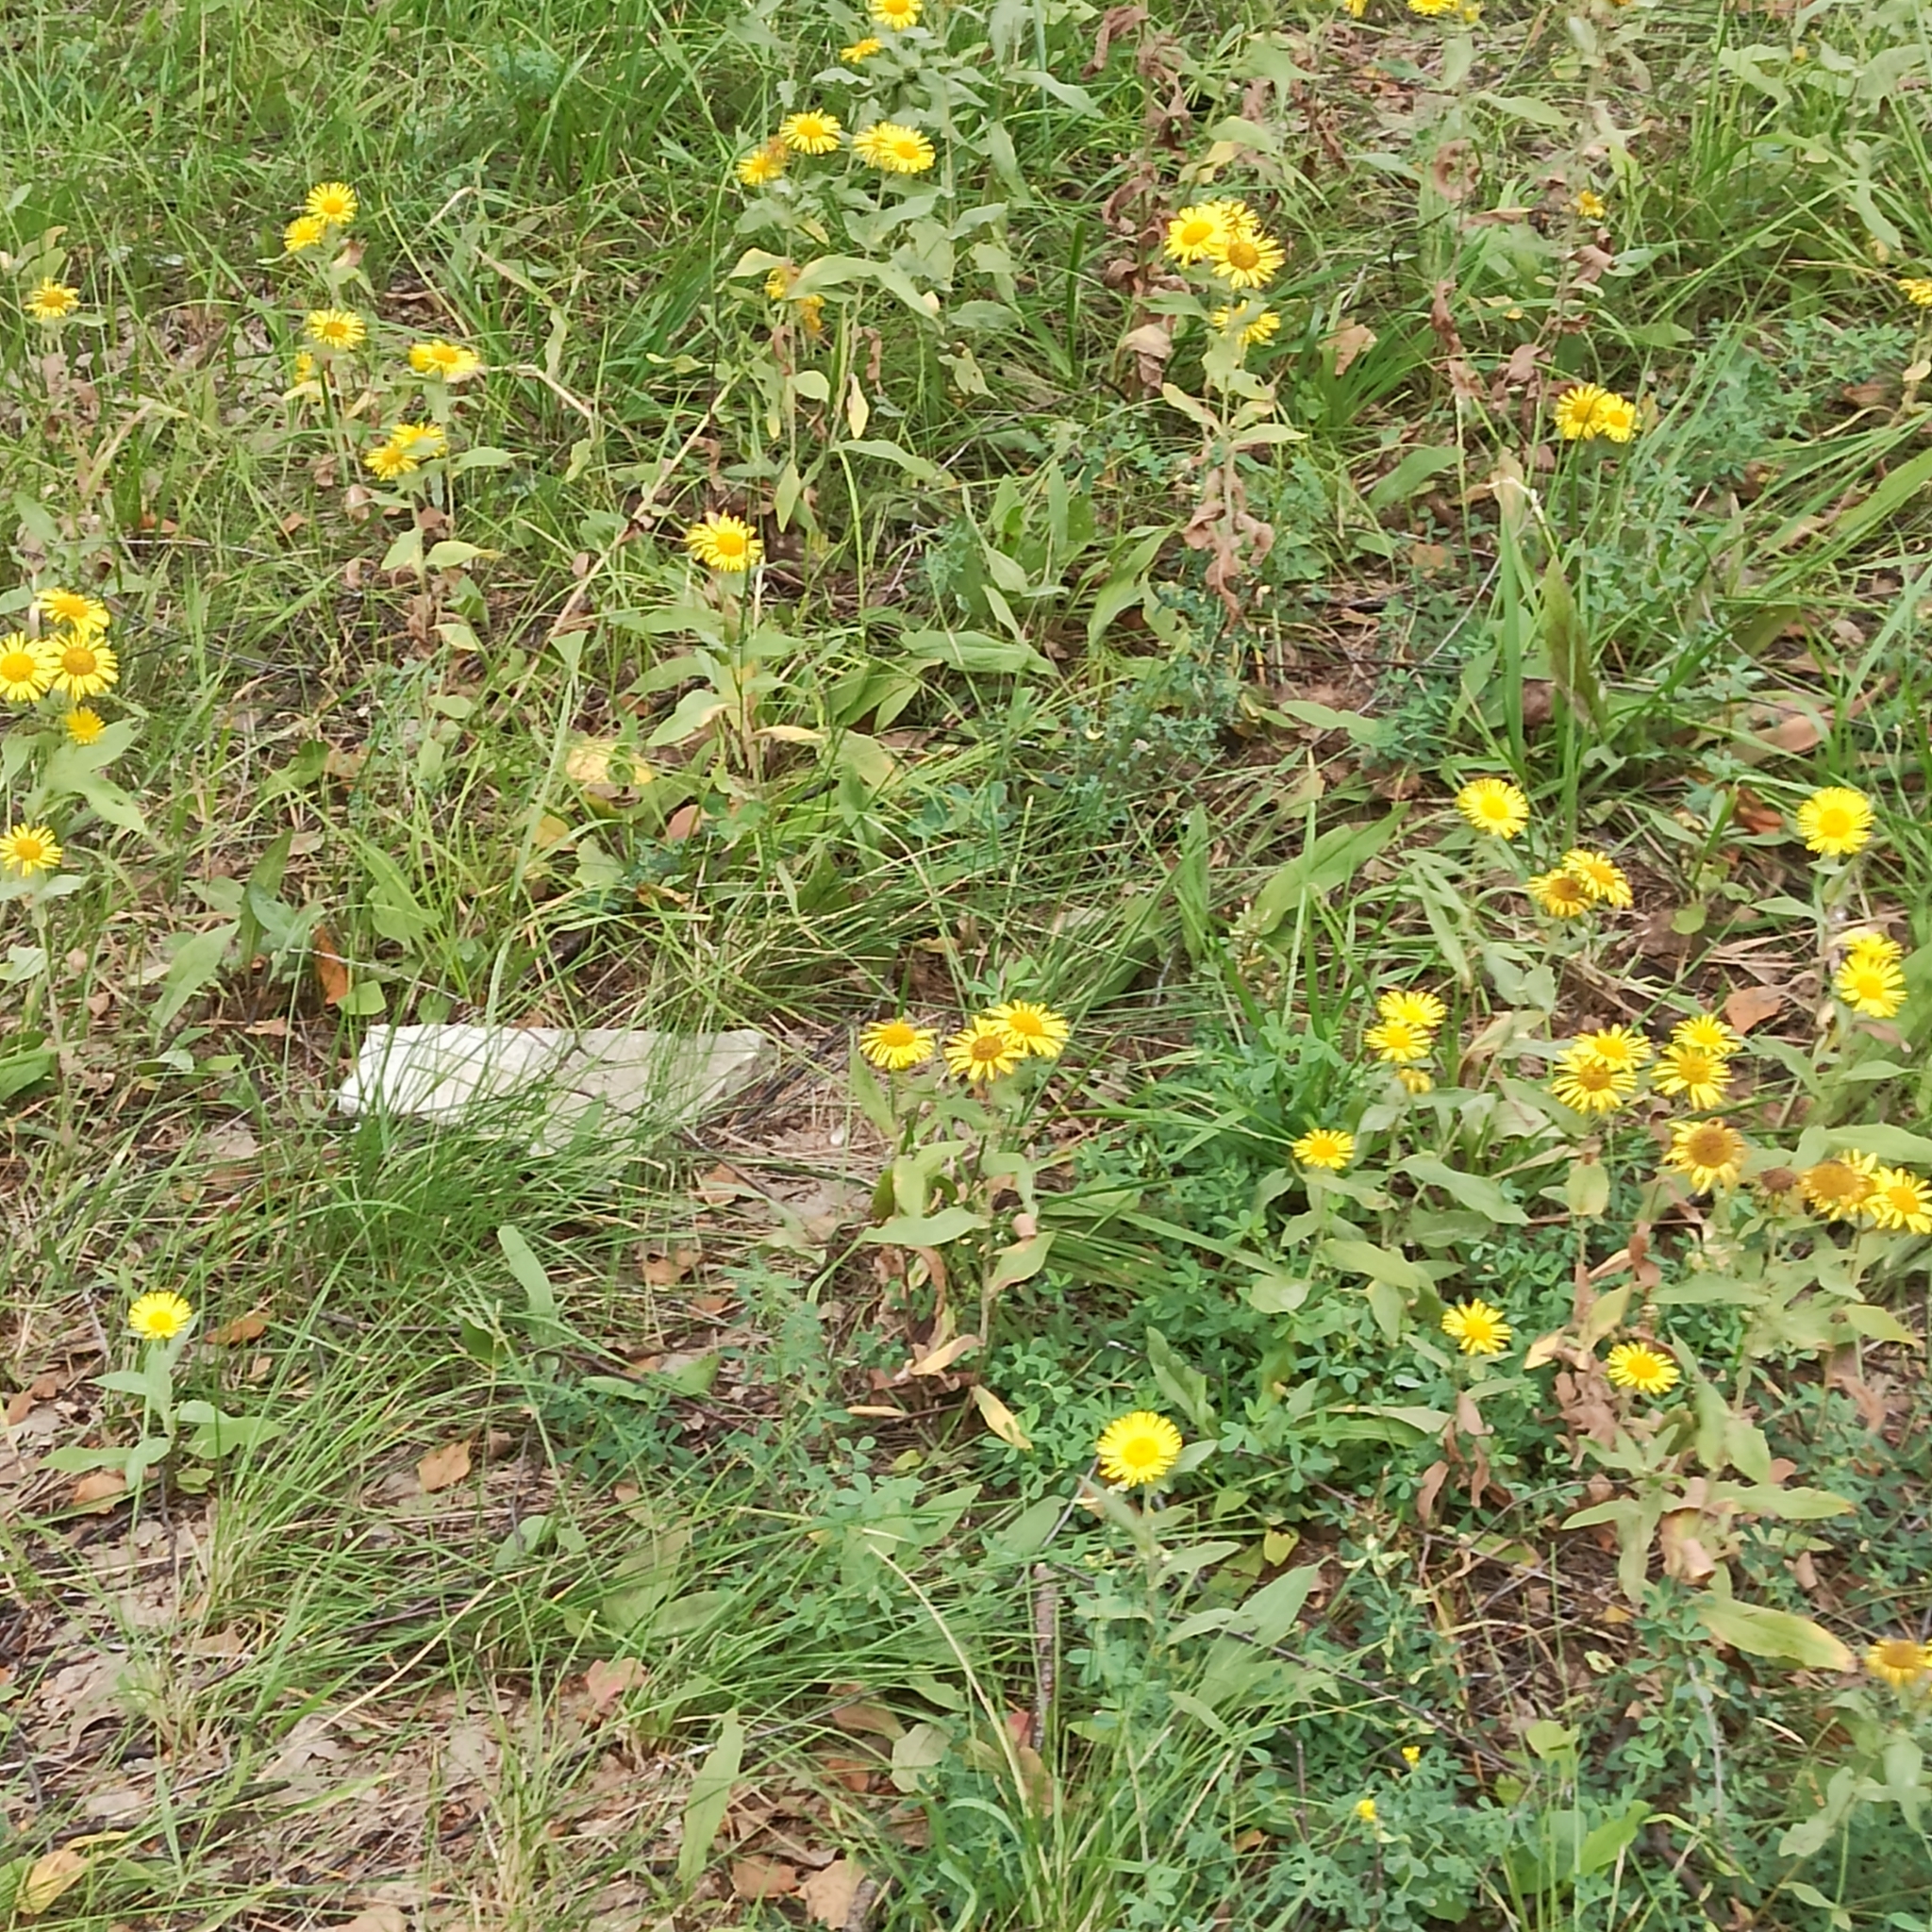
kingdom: Plantae
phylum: Tracheophyta
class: Magnoliopsida
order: Asterales
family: Asteraceae
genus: Pentanema
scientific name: Pentanema britannicum
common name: British elecampane
